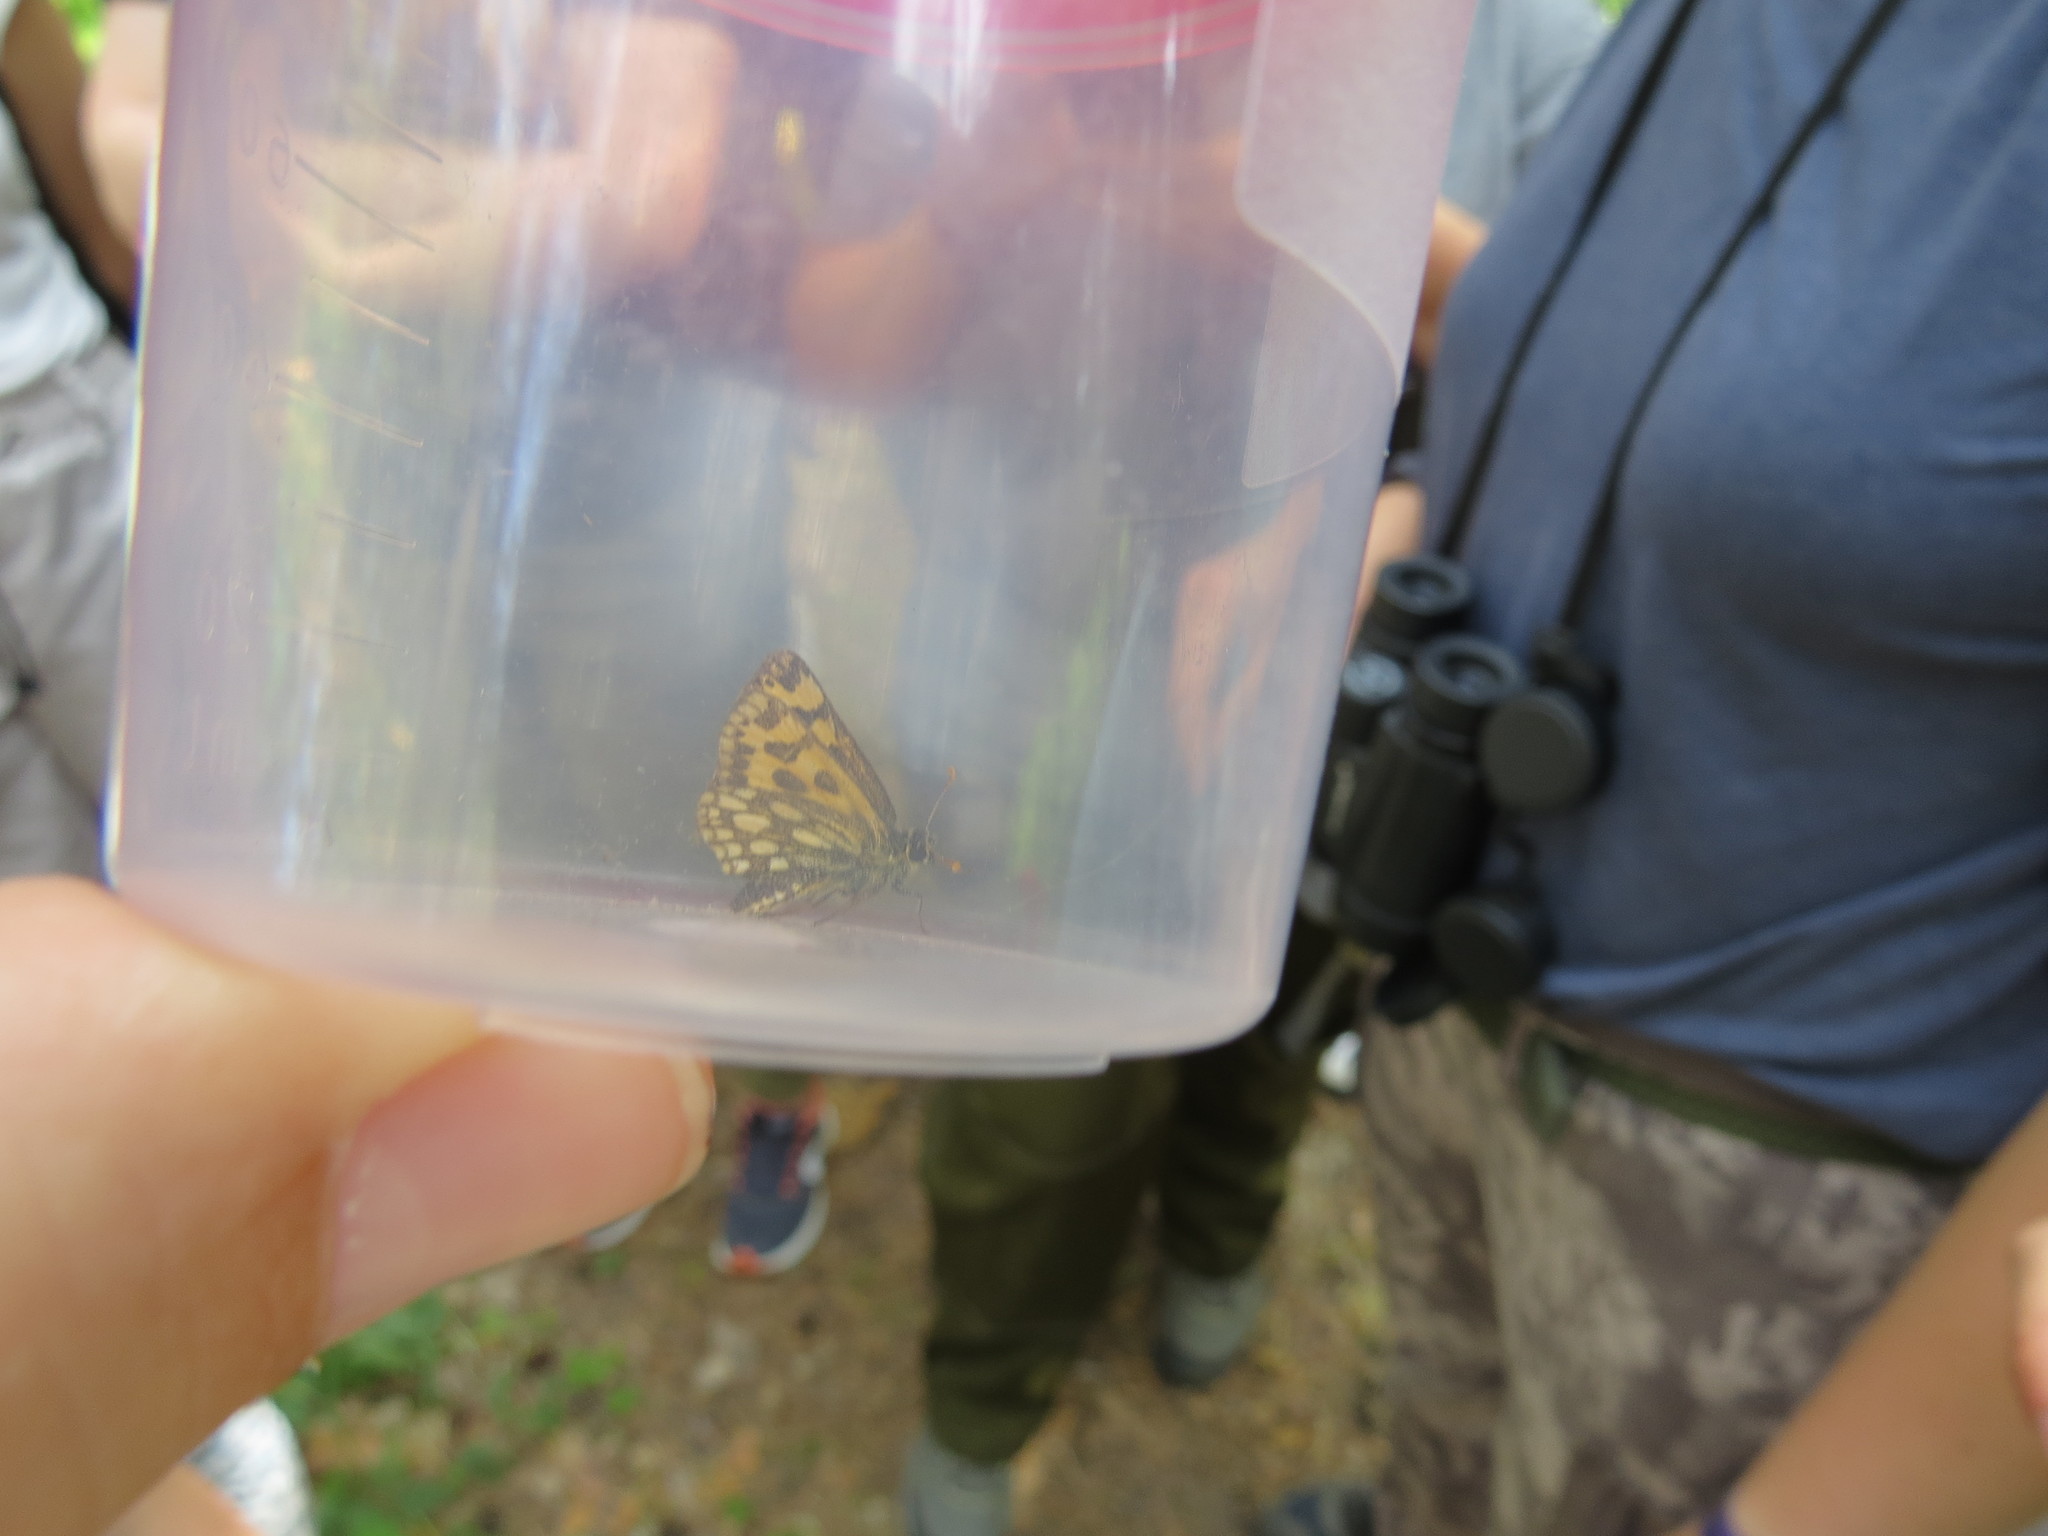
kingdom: Animalia
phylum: Arthropoda
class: Insecta
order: Lepidoptera
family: Hesperiidae
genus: Carterocephalus
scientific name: Carterocephalus silvicola
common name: Northern chequered skipper
